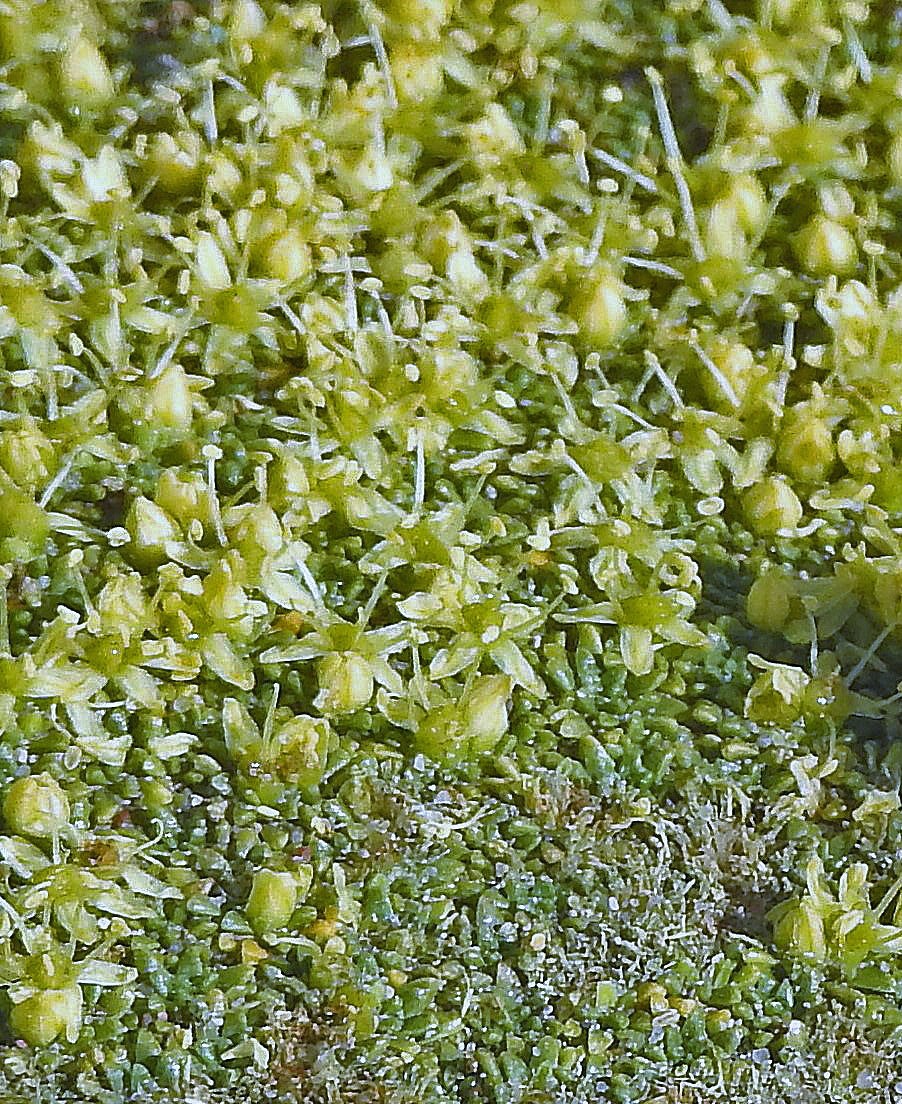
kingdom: Plantae
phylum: Tracheophyta
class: Magnoliopsida
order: Apiales
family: Apiaceae
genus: Azorella
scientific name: Azorella monantha
